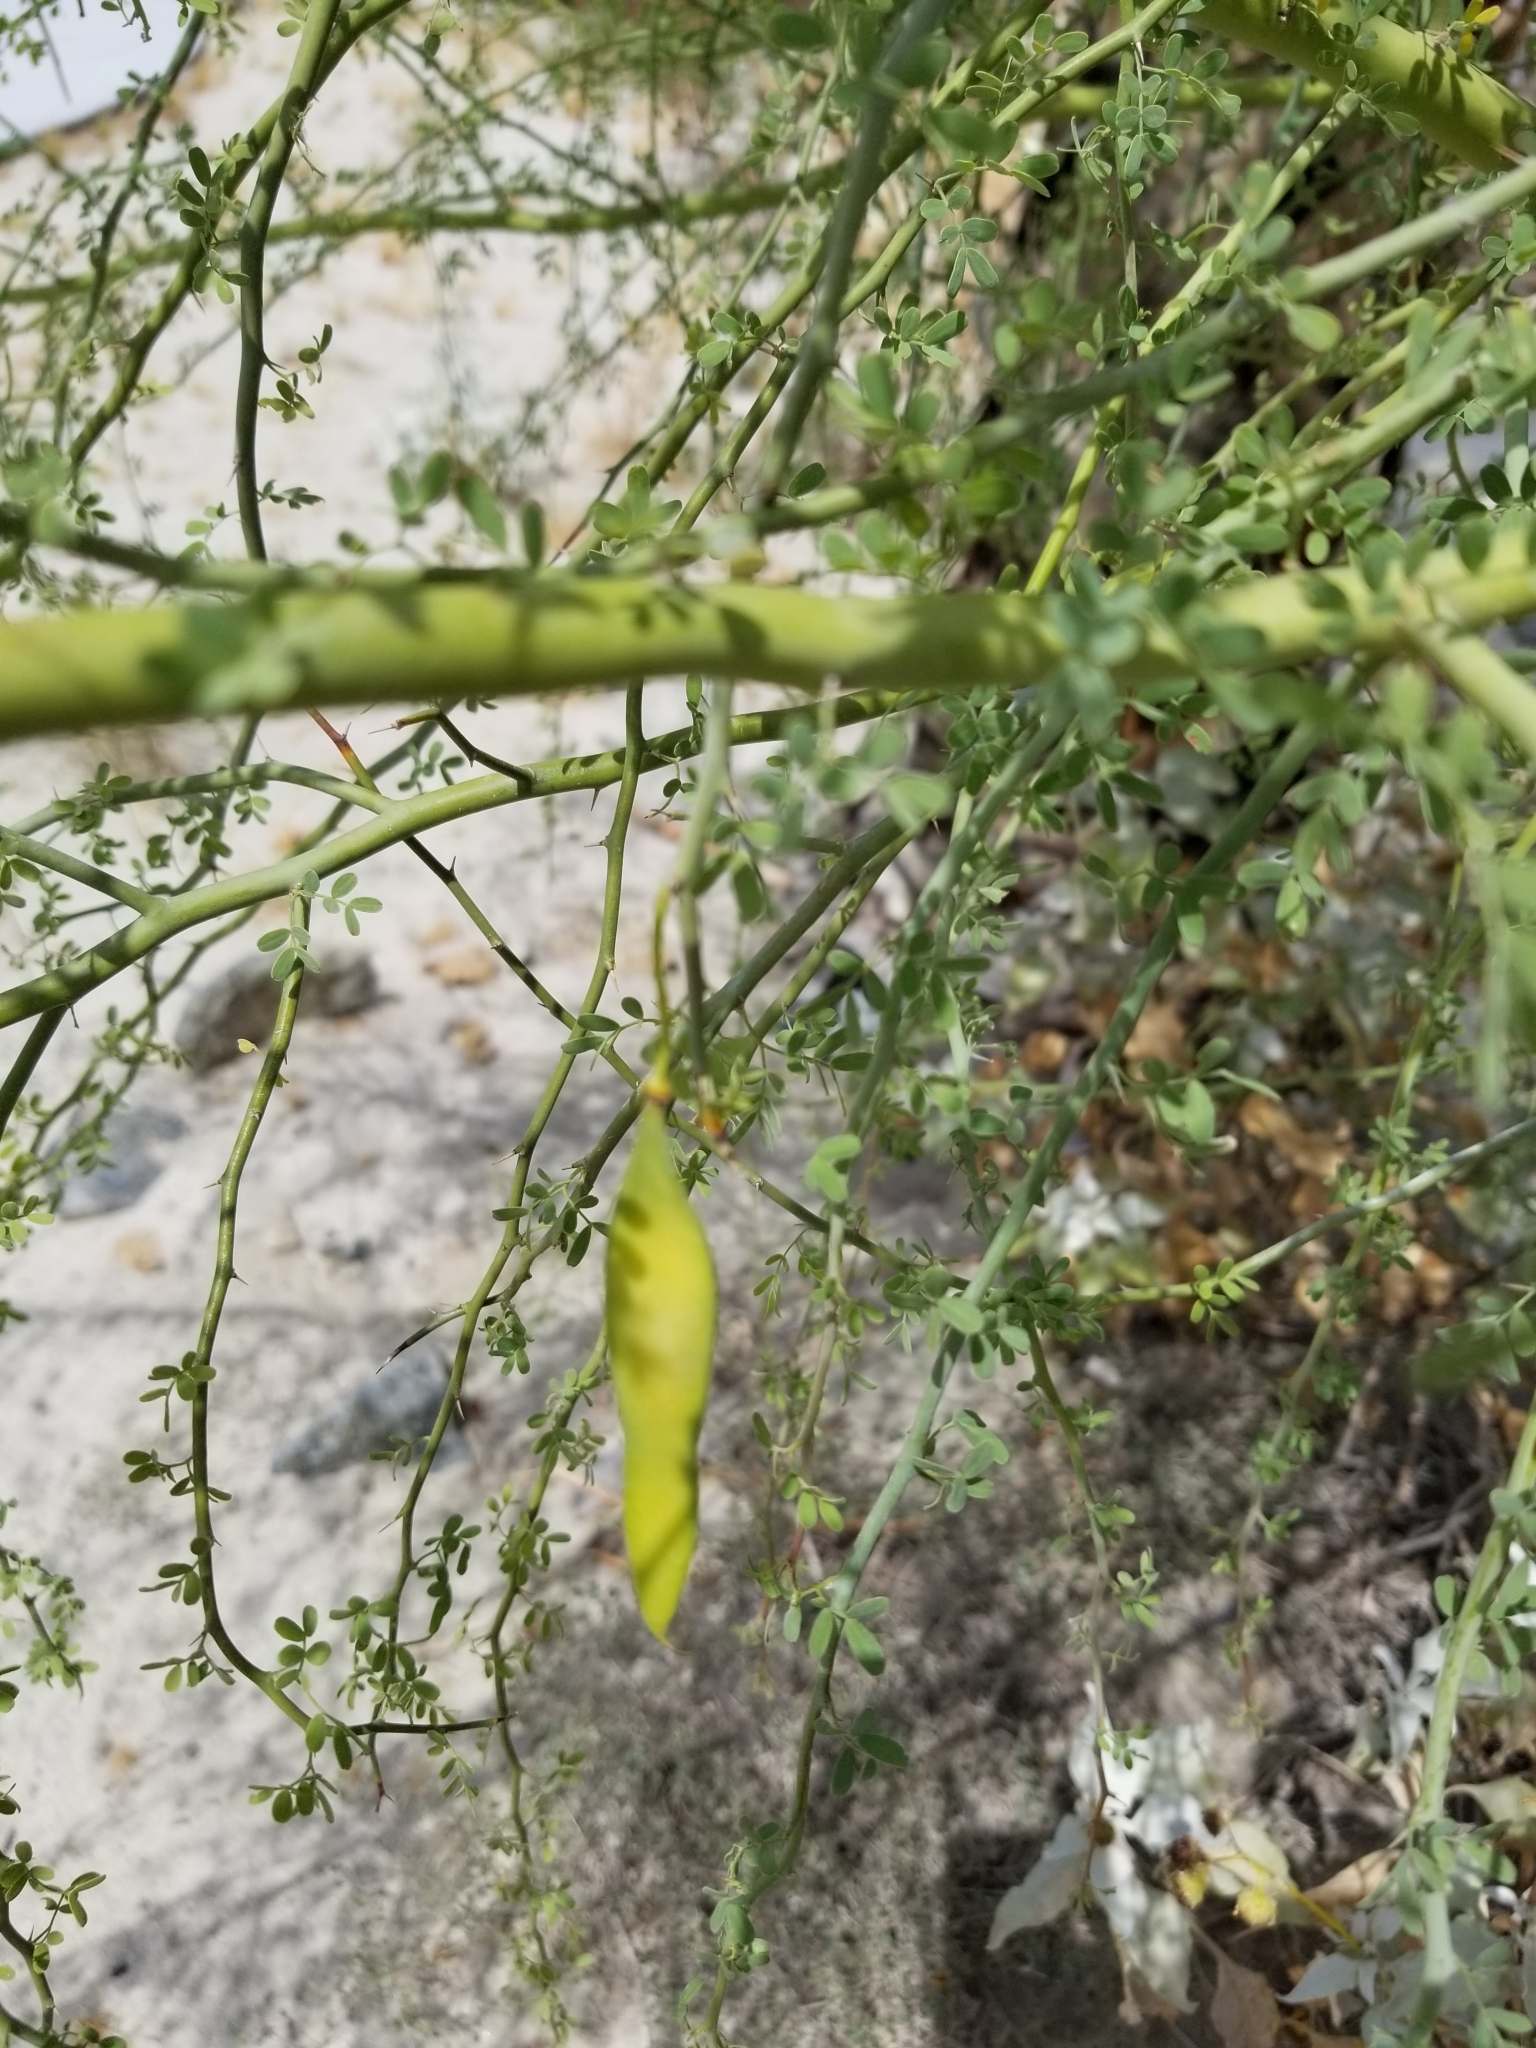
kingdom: Plantae
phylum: Tracheophyta
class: Magnoliopsida
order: Fabales
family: Fabaceae
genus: Parkinsonia
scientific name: Parkinsonia florida
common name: Blue paloverde
